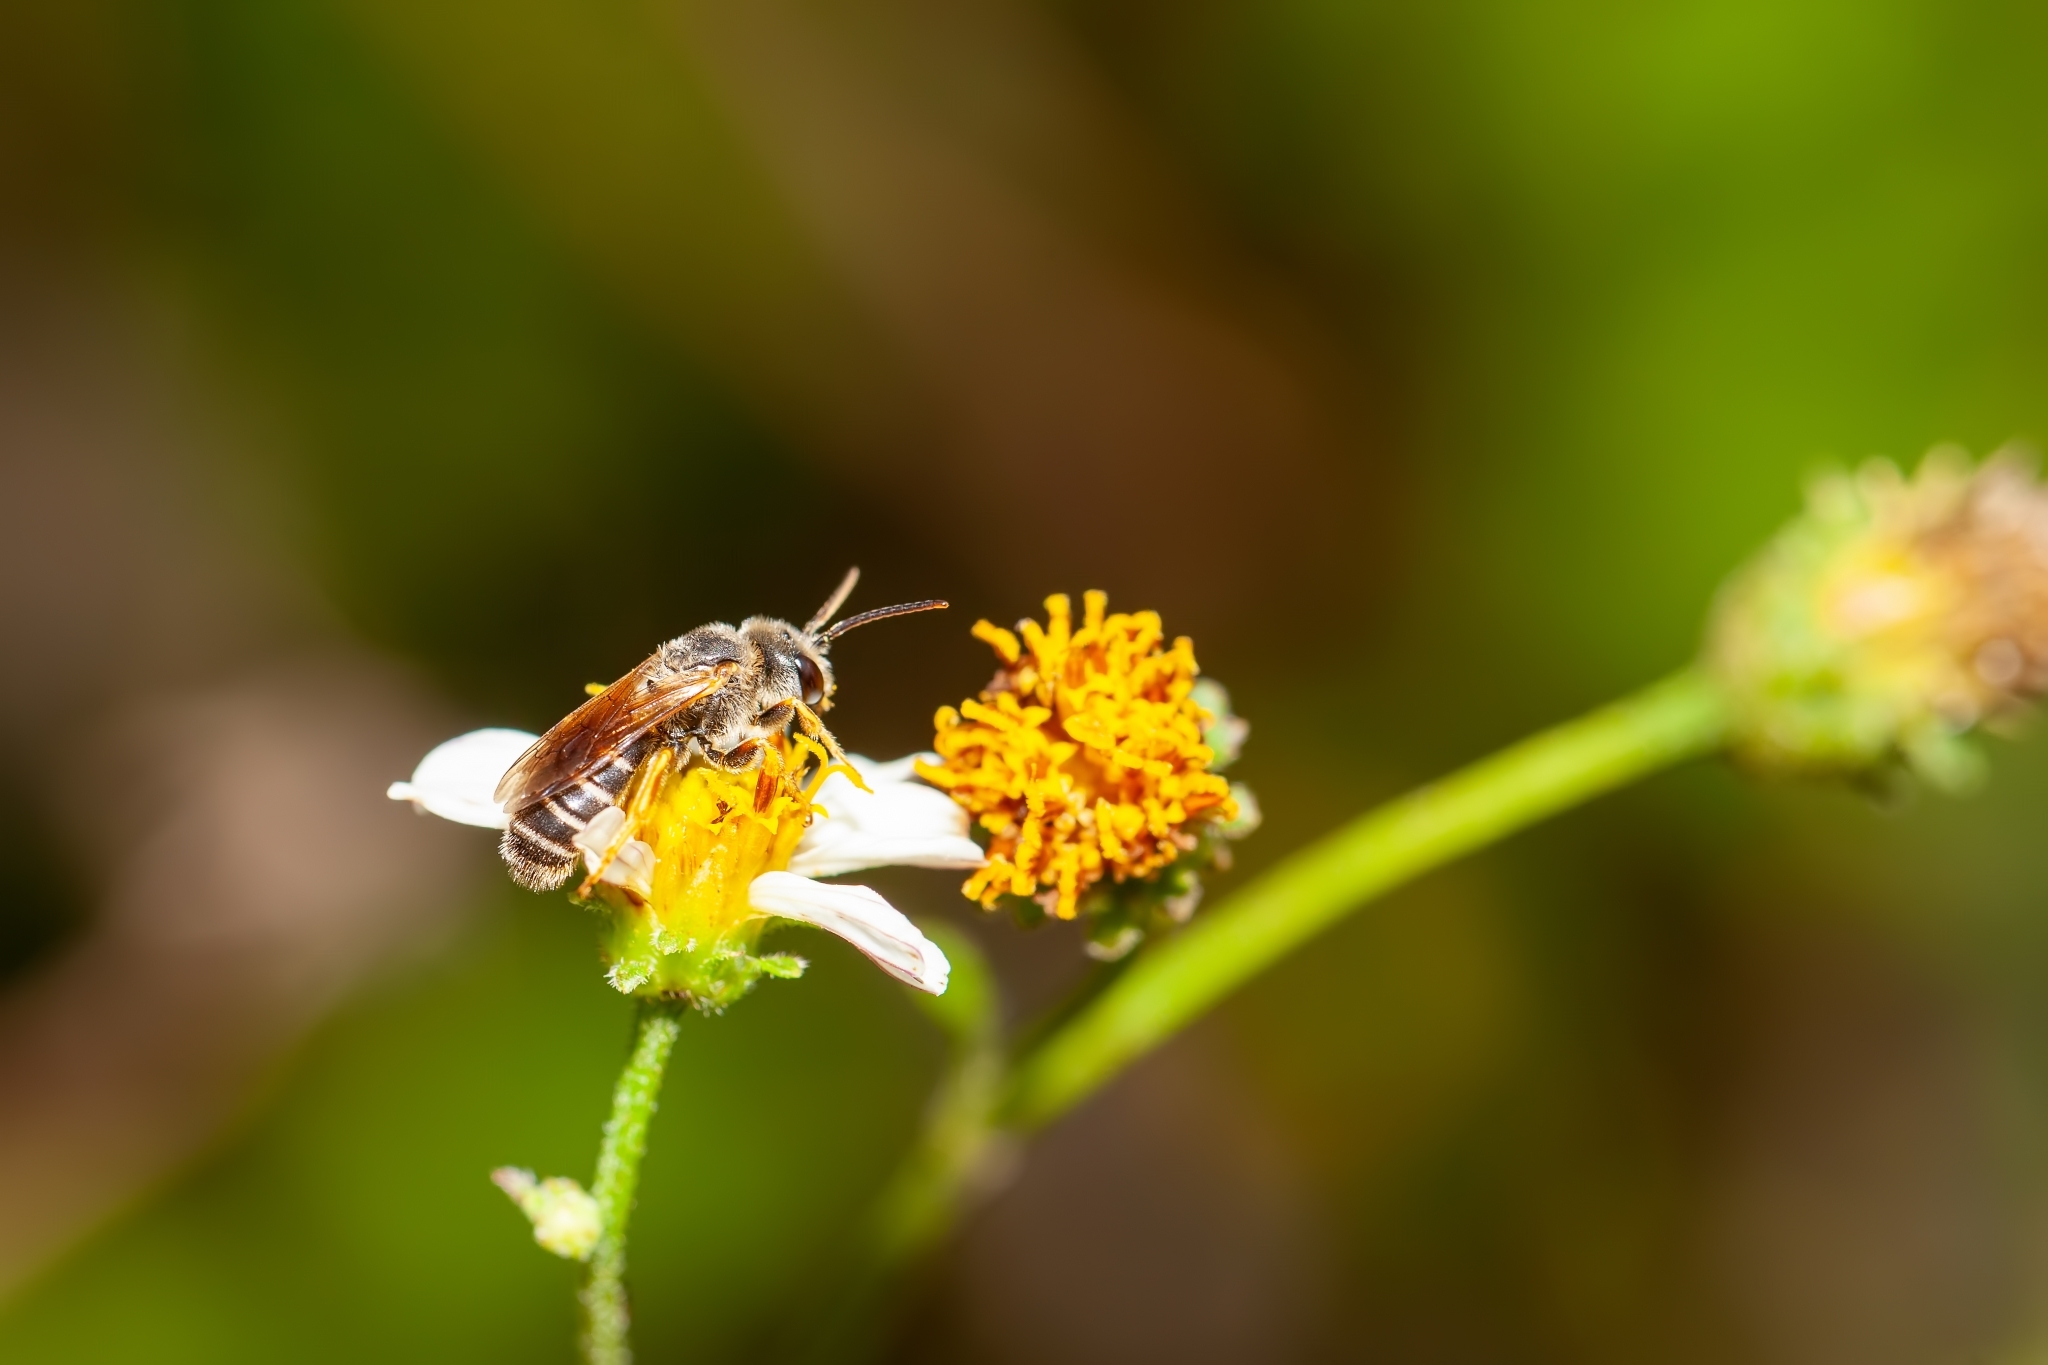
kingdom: Animalia
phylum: Arthropoda
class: Insecta
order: Hymenoptera
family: Halictidae
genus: Halictus
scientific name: Halictus poeyi
